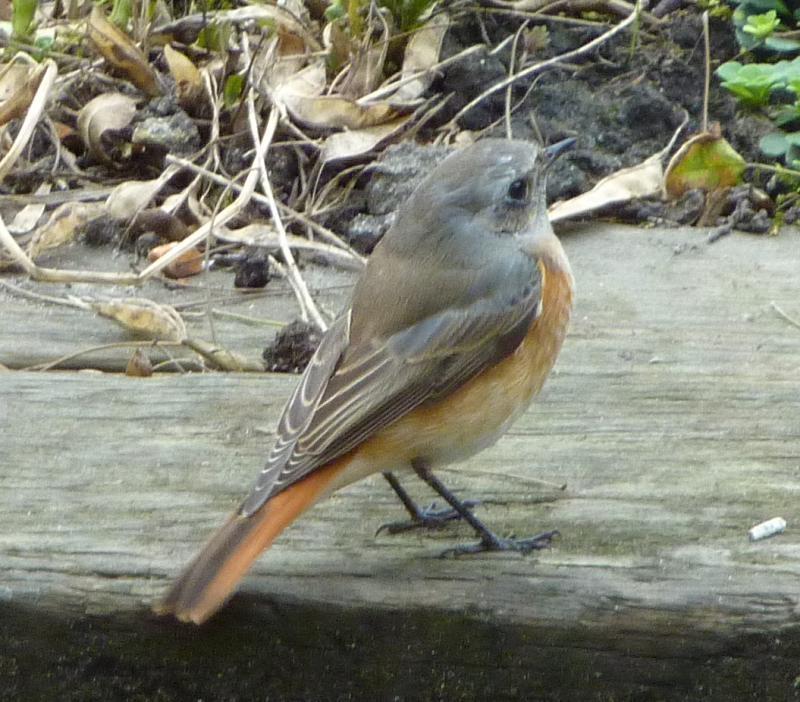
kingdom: Animalia
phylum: Chordata
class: Aves
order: Passeriformes
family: Muscicapidae
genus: Phoenicurus
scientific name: Phoenicurus phoenicurus
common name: Common redstart
